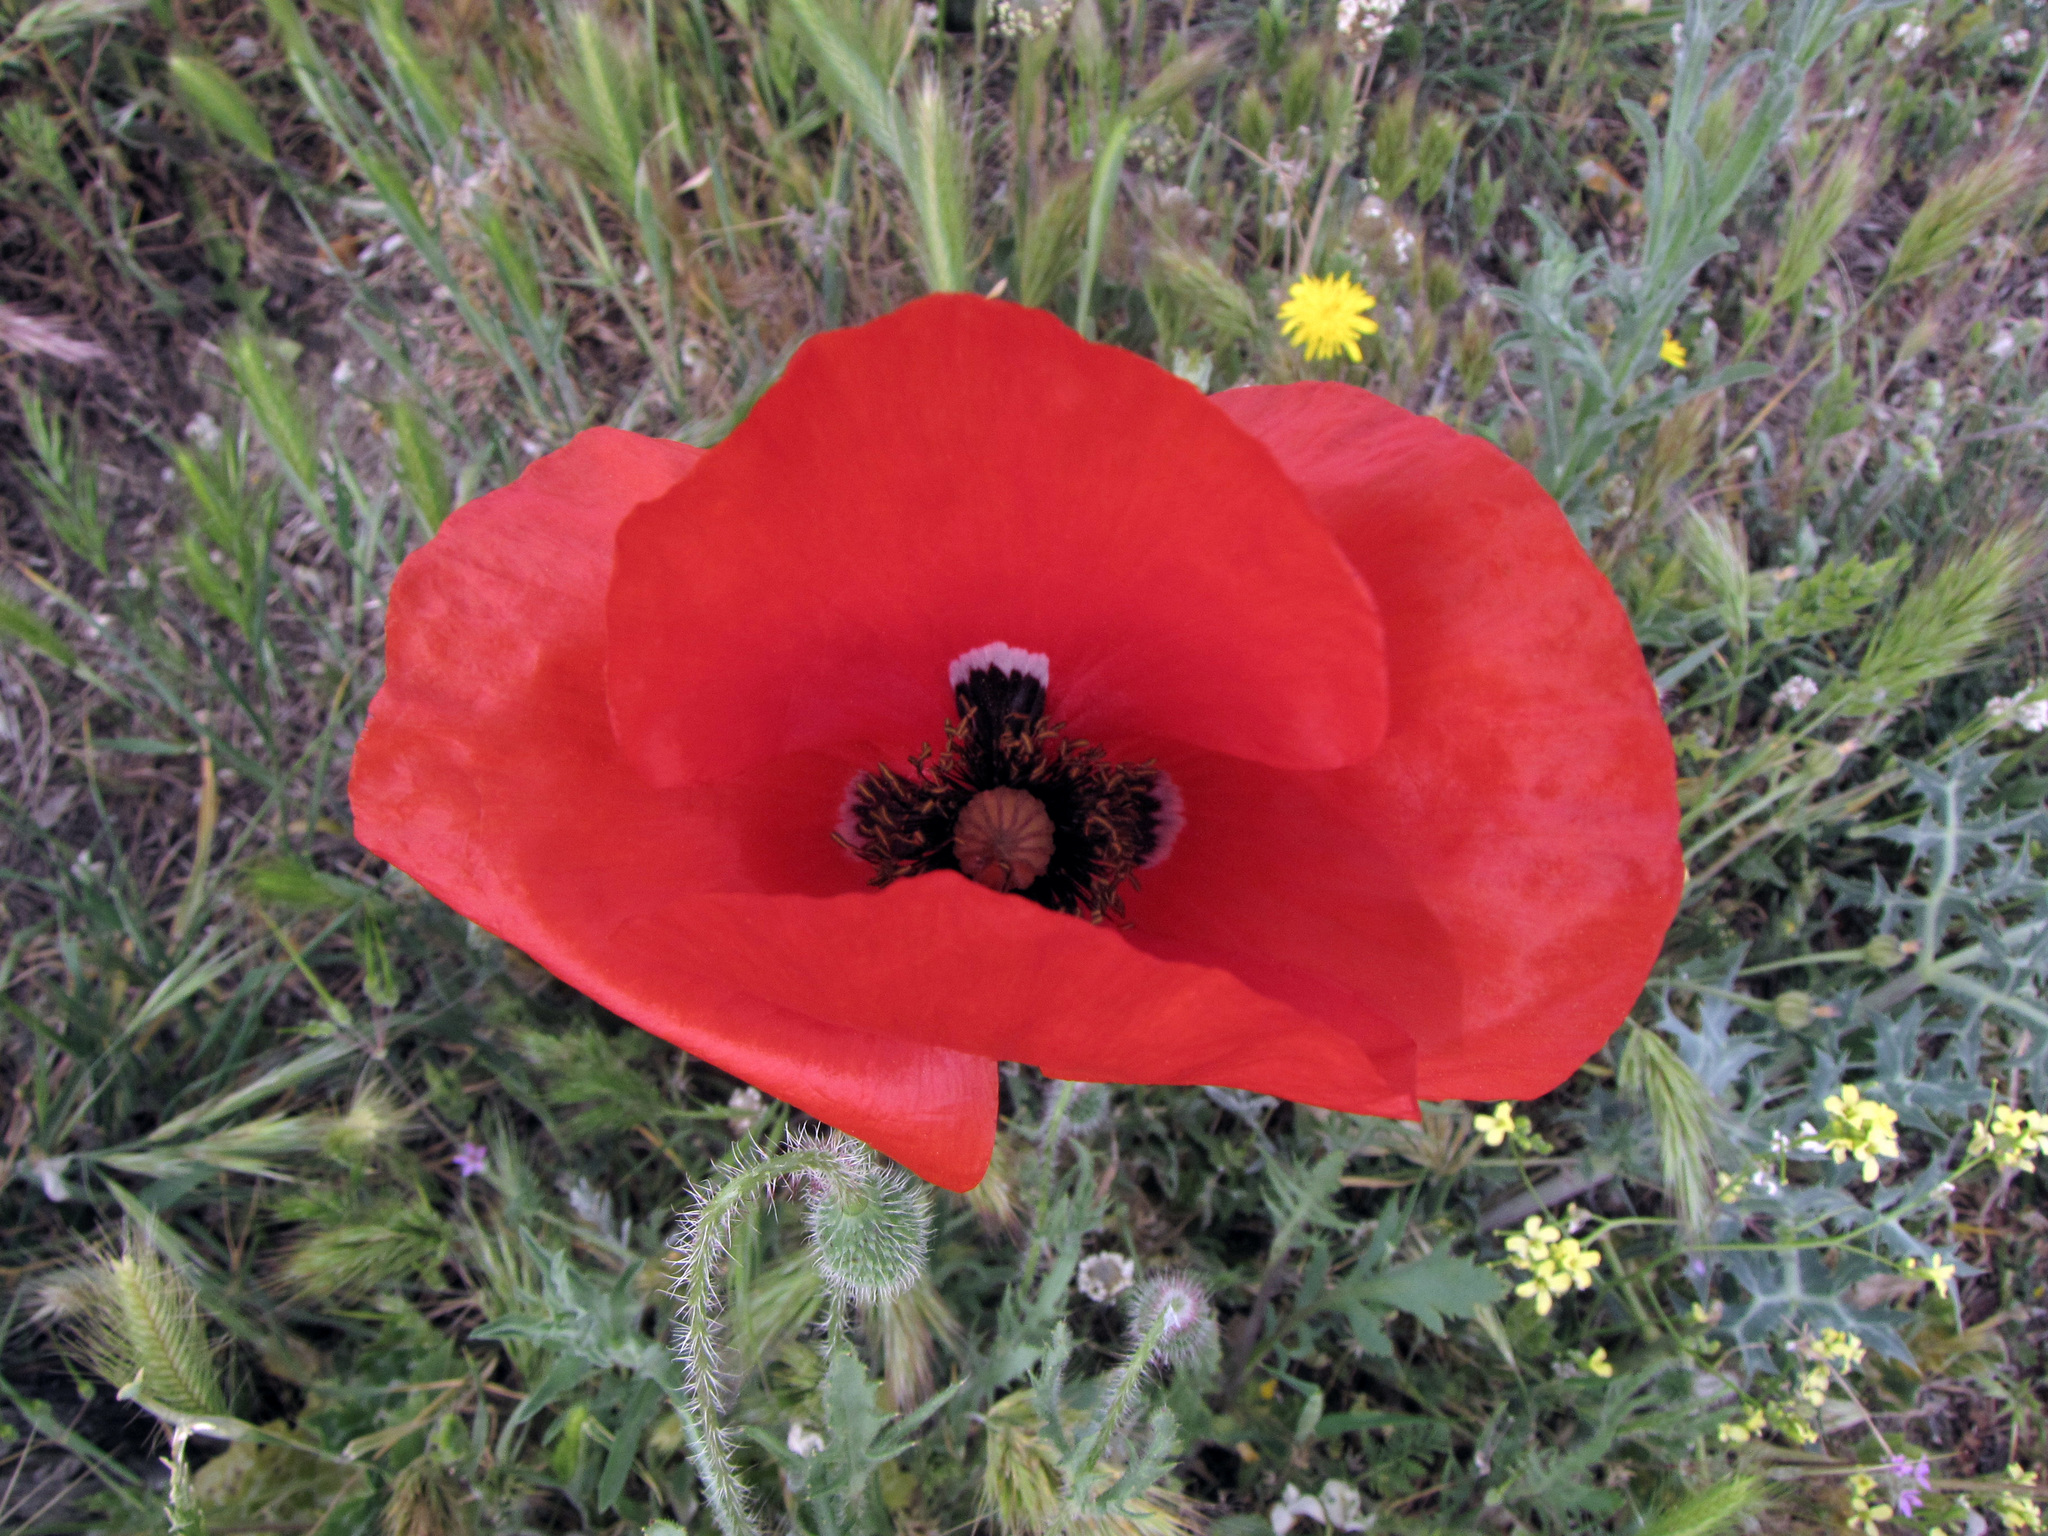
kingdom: Plantae
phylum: Tracheophyta
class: Magnoliopsida
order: Ranunculales
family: Papaveraceae
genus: Papaver
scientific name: Papaver rhoeas
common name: Corn poppy
